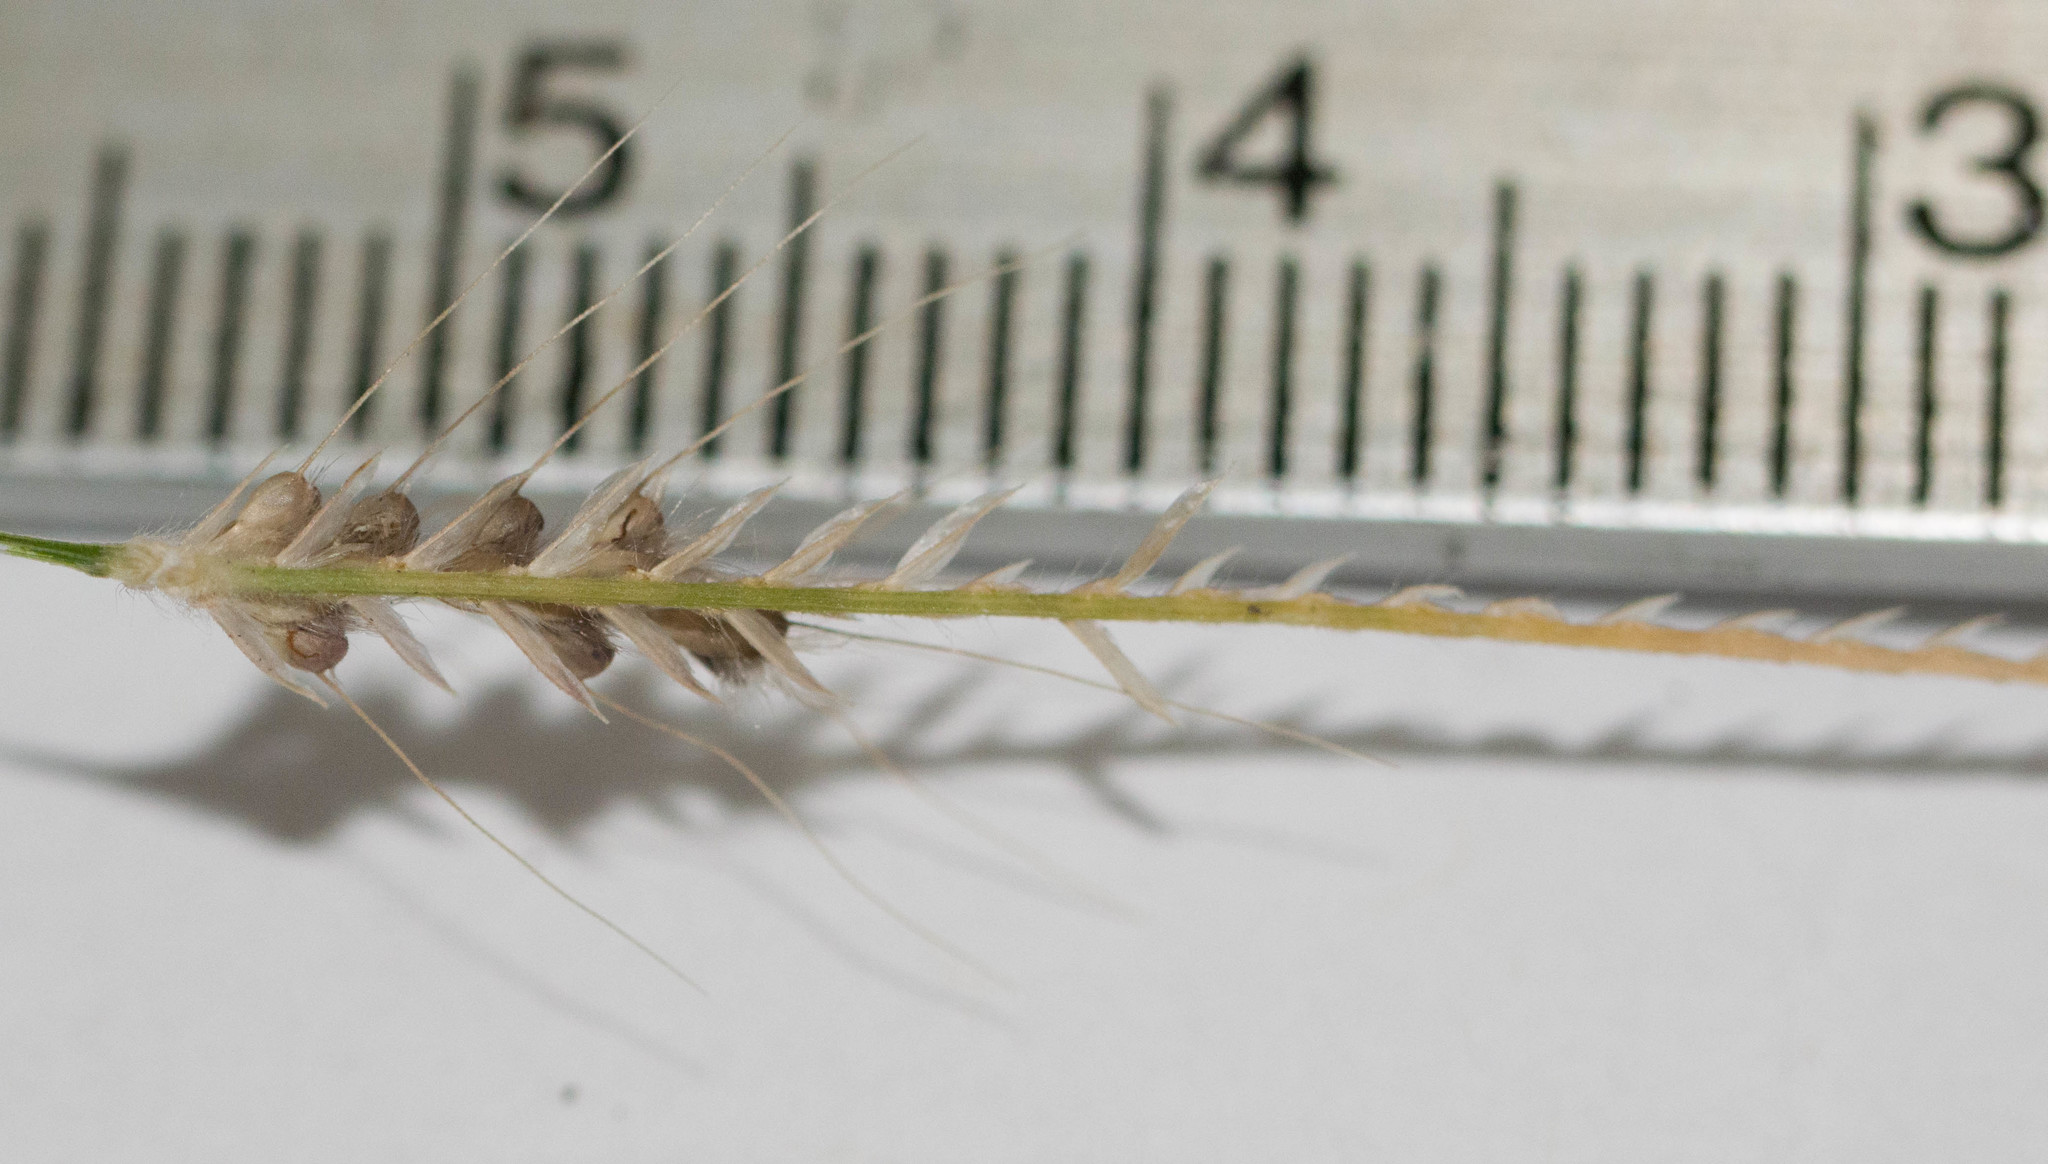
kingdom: Plantae
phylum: Tracheophyta
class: Liliopsida
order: Poales
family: Poaceae
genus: Chloris
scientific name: Chloris barbata
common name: Swollen fingergrass
